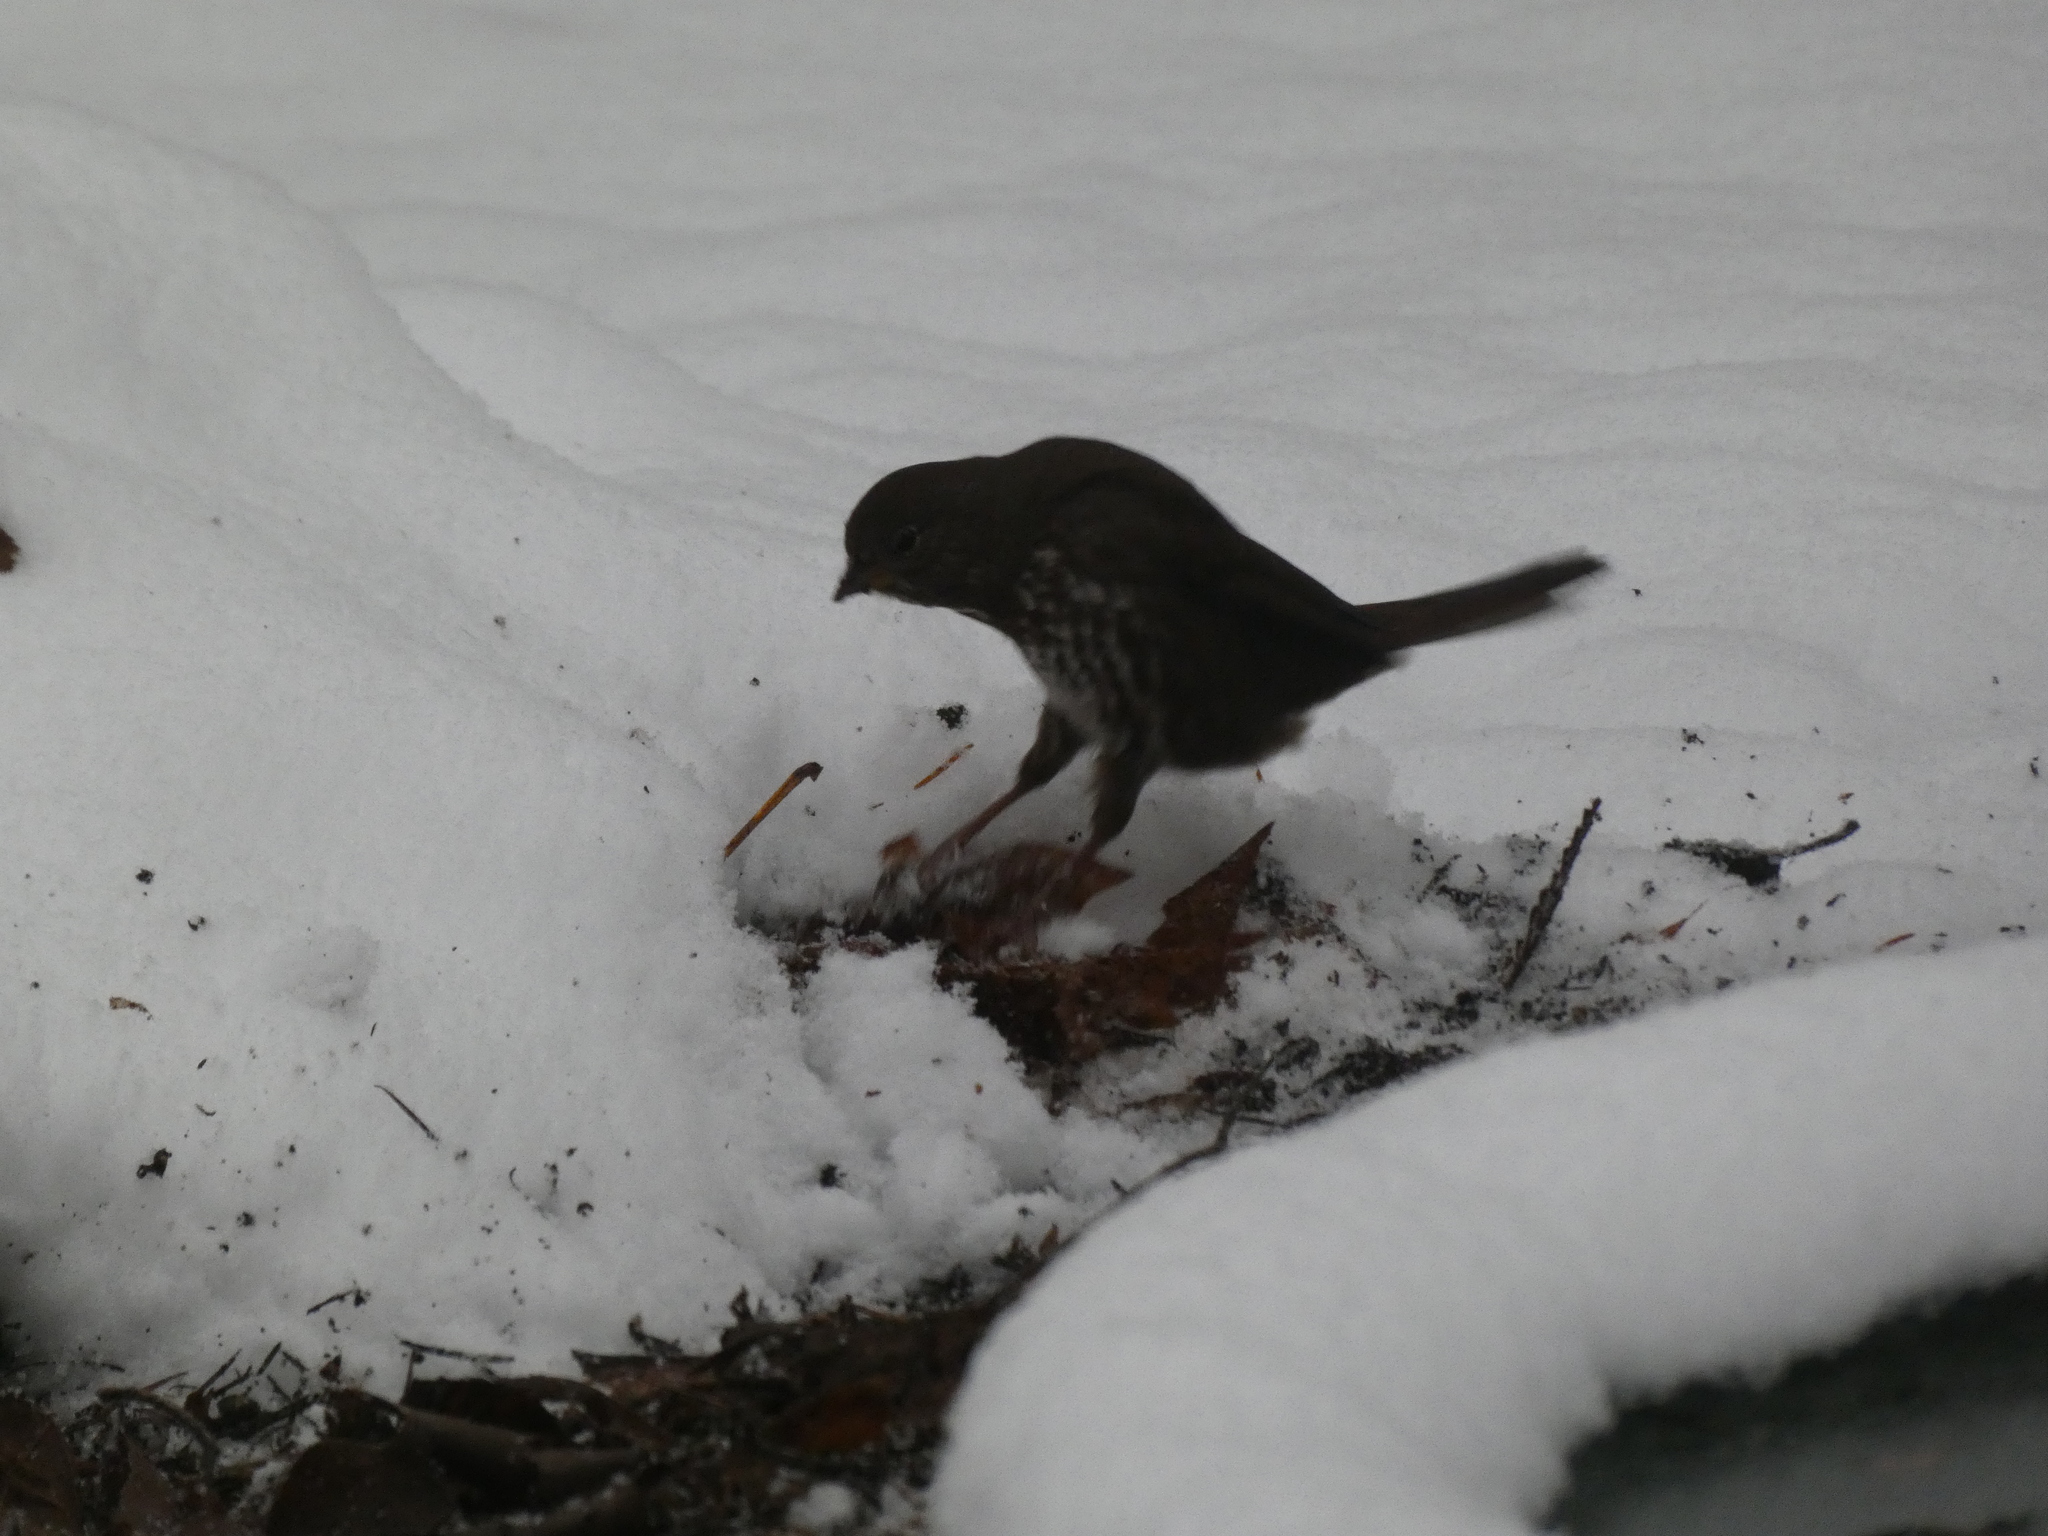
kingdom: Animalia
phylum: Chordata
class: Aves
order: Passeriformes
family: Passerellidae
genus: Passerella
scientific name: Passerella iliaca
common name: Fox sparrow
